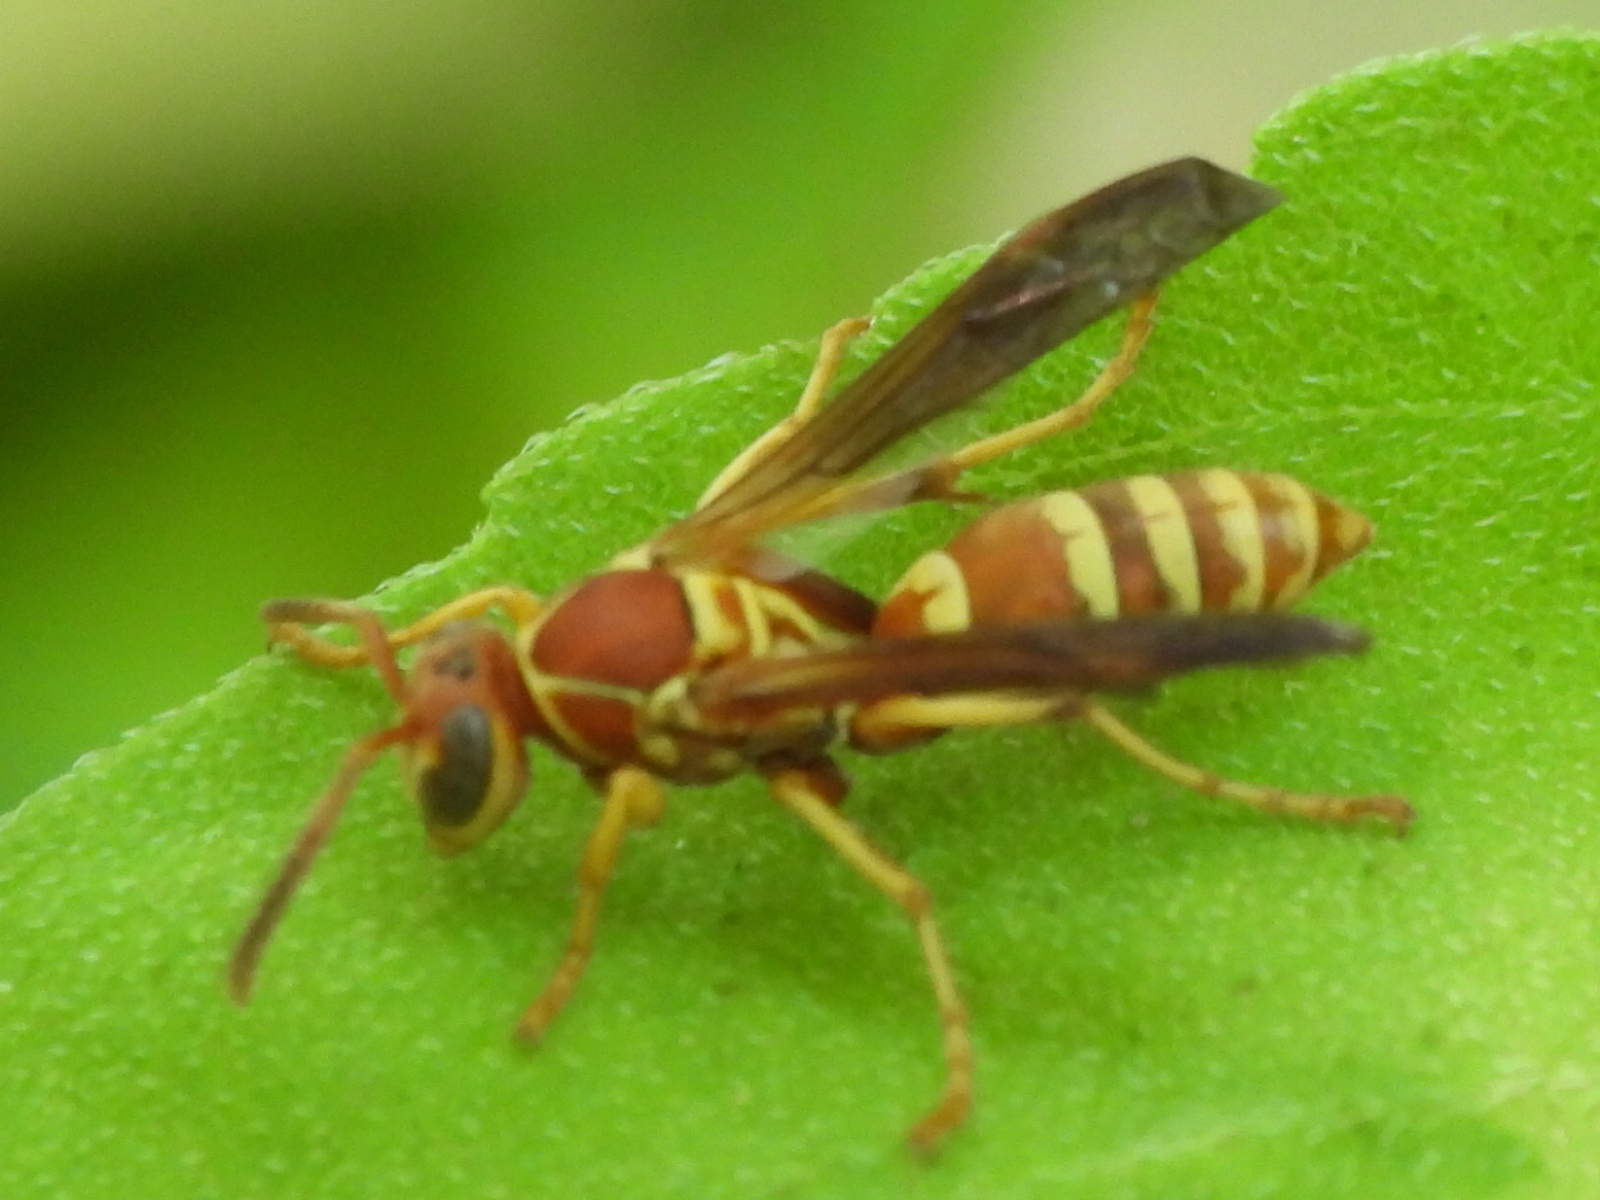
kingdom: Animalia
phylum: Arthropoda
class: Insecta
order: Hymenoptera
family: Eumenidae
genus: Polistes
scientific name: Polistes dorsalis
